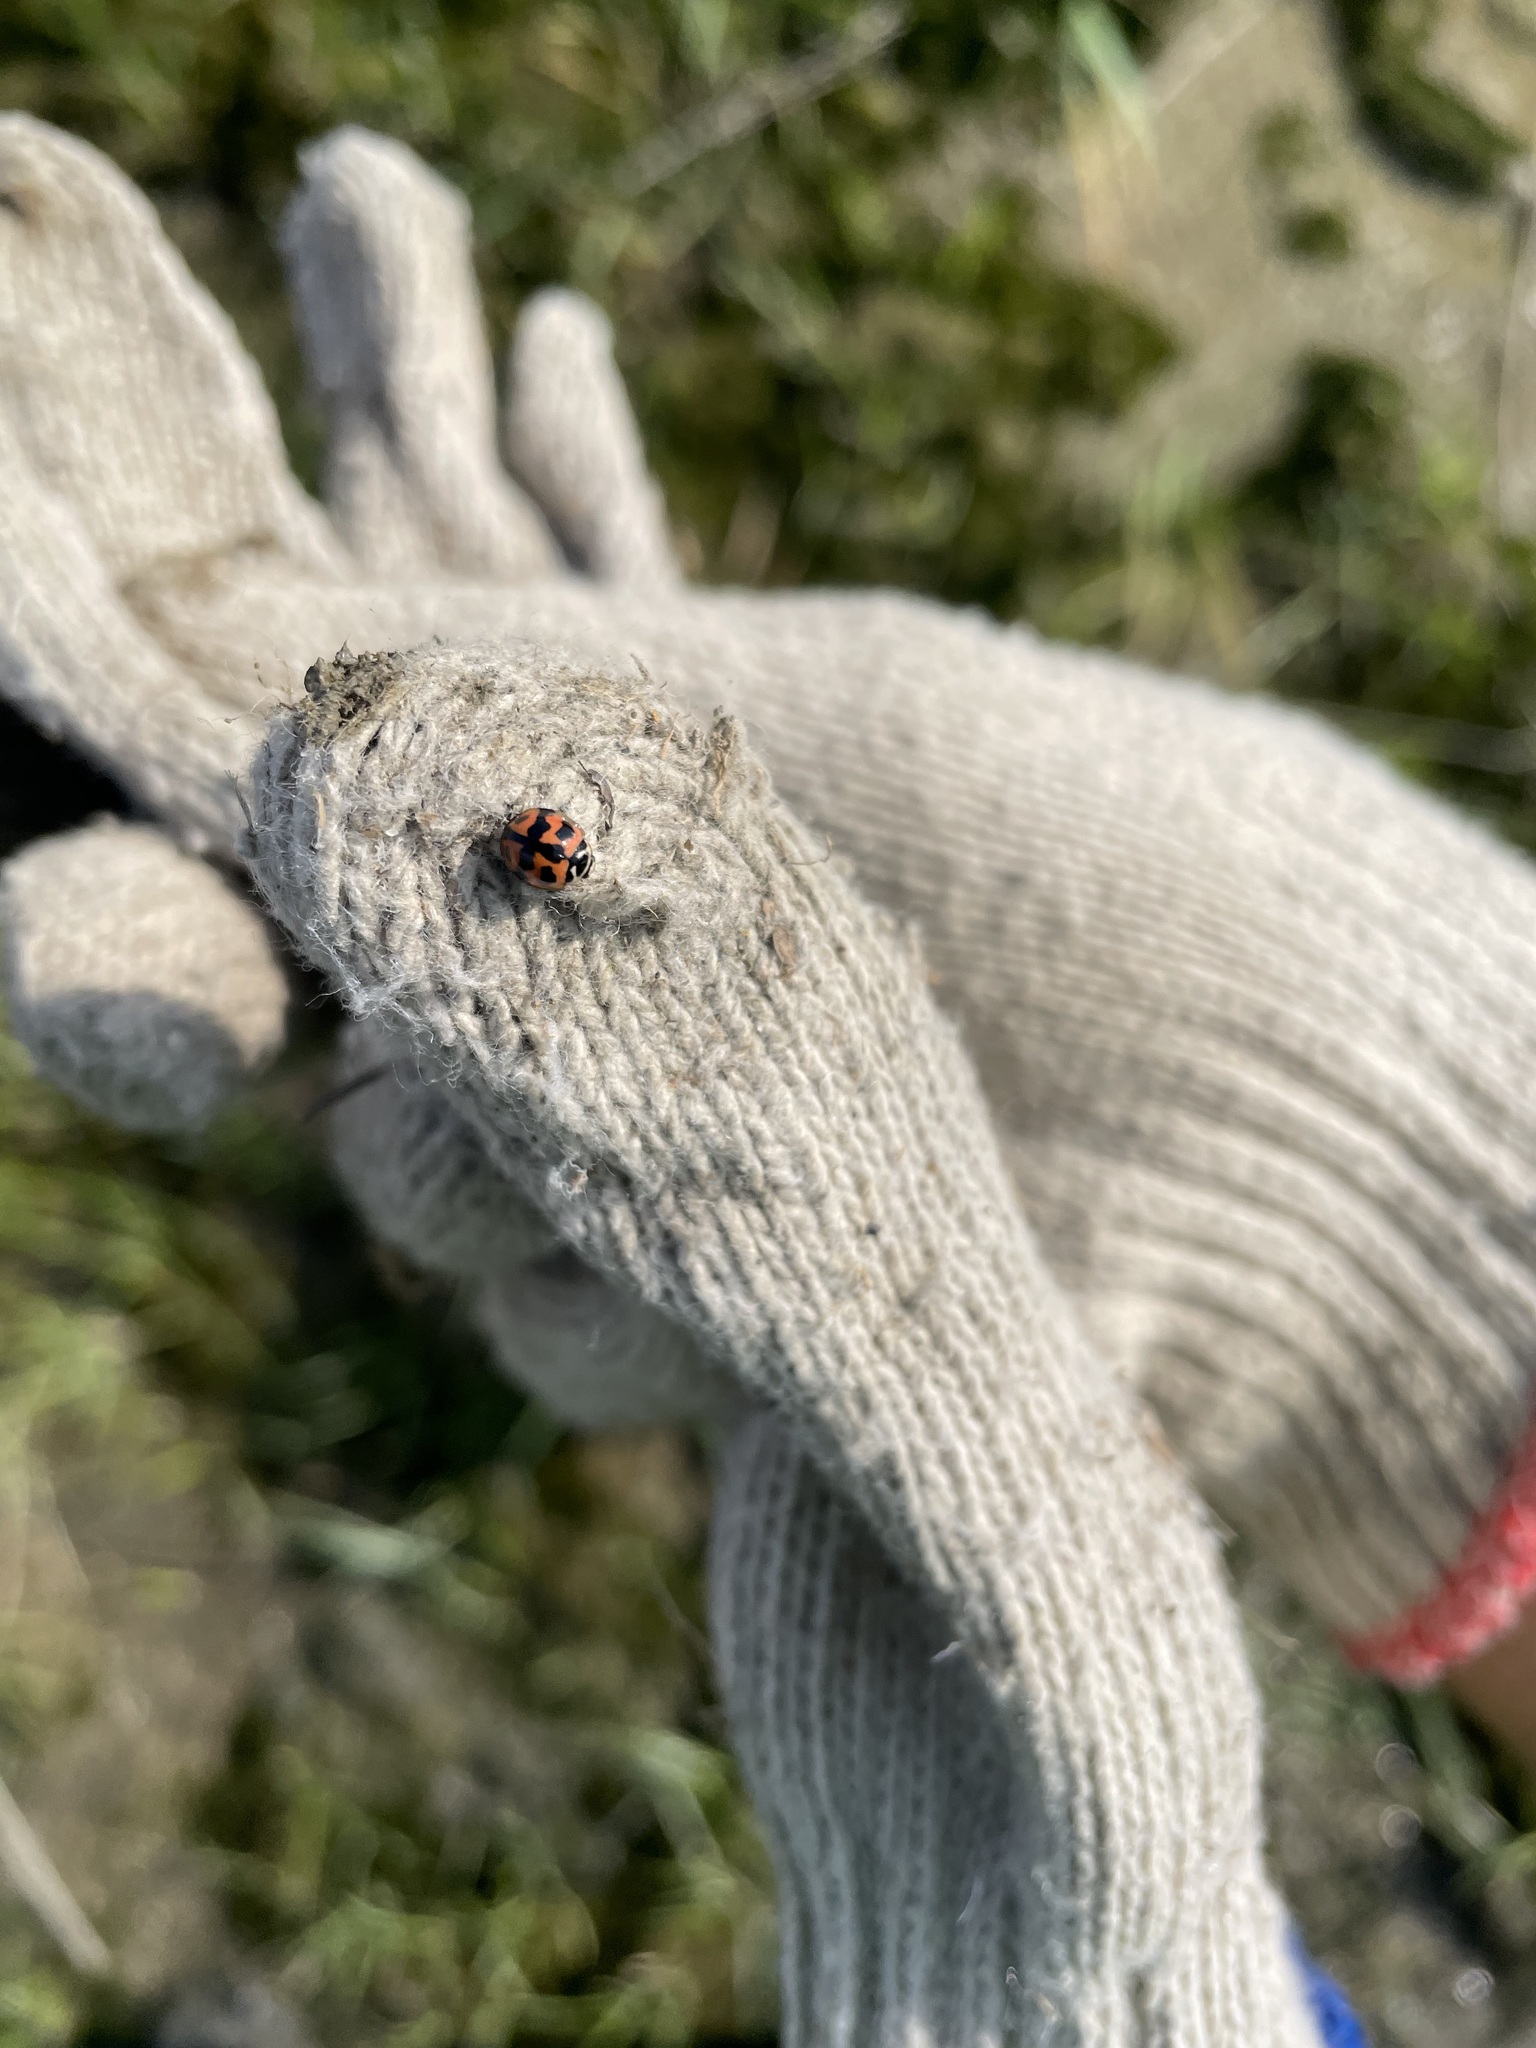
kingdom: Animalia
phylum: Arthropoda
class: Insecta
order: Coleoptera
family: Coccinellidae
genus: Cheilomenes
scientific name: Cheilomenes sexmaculata
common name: Ladybird beetle
